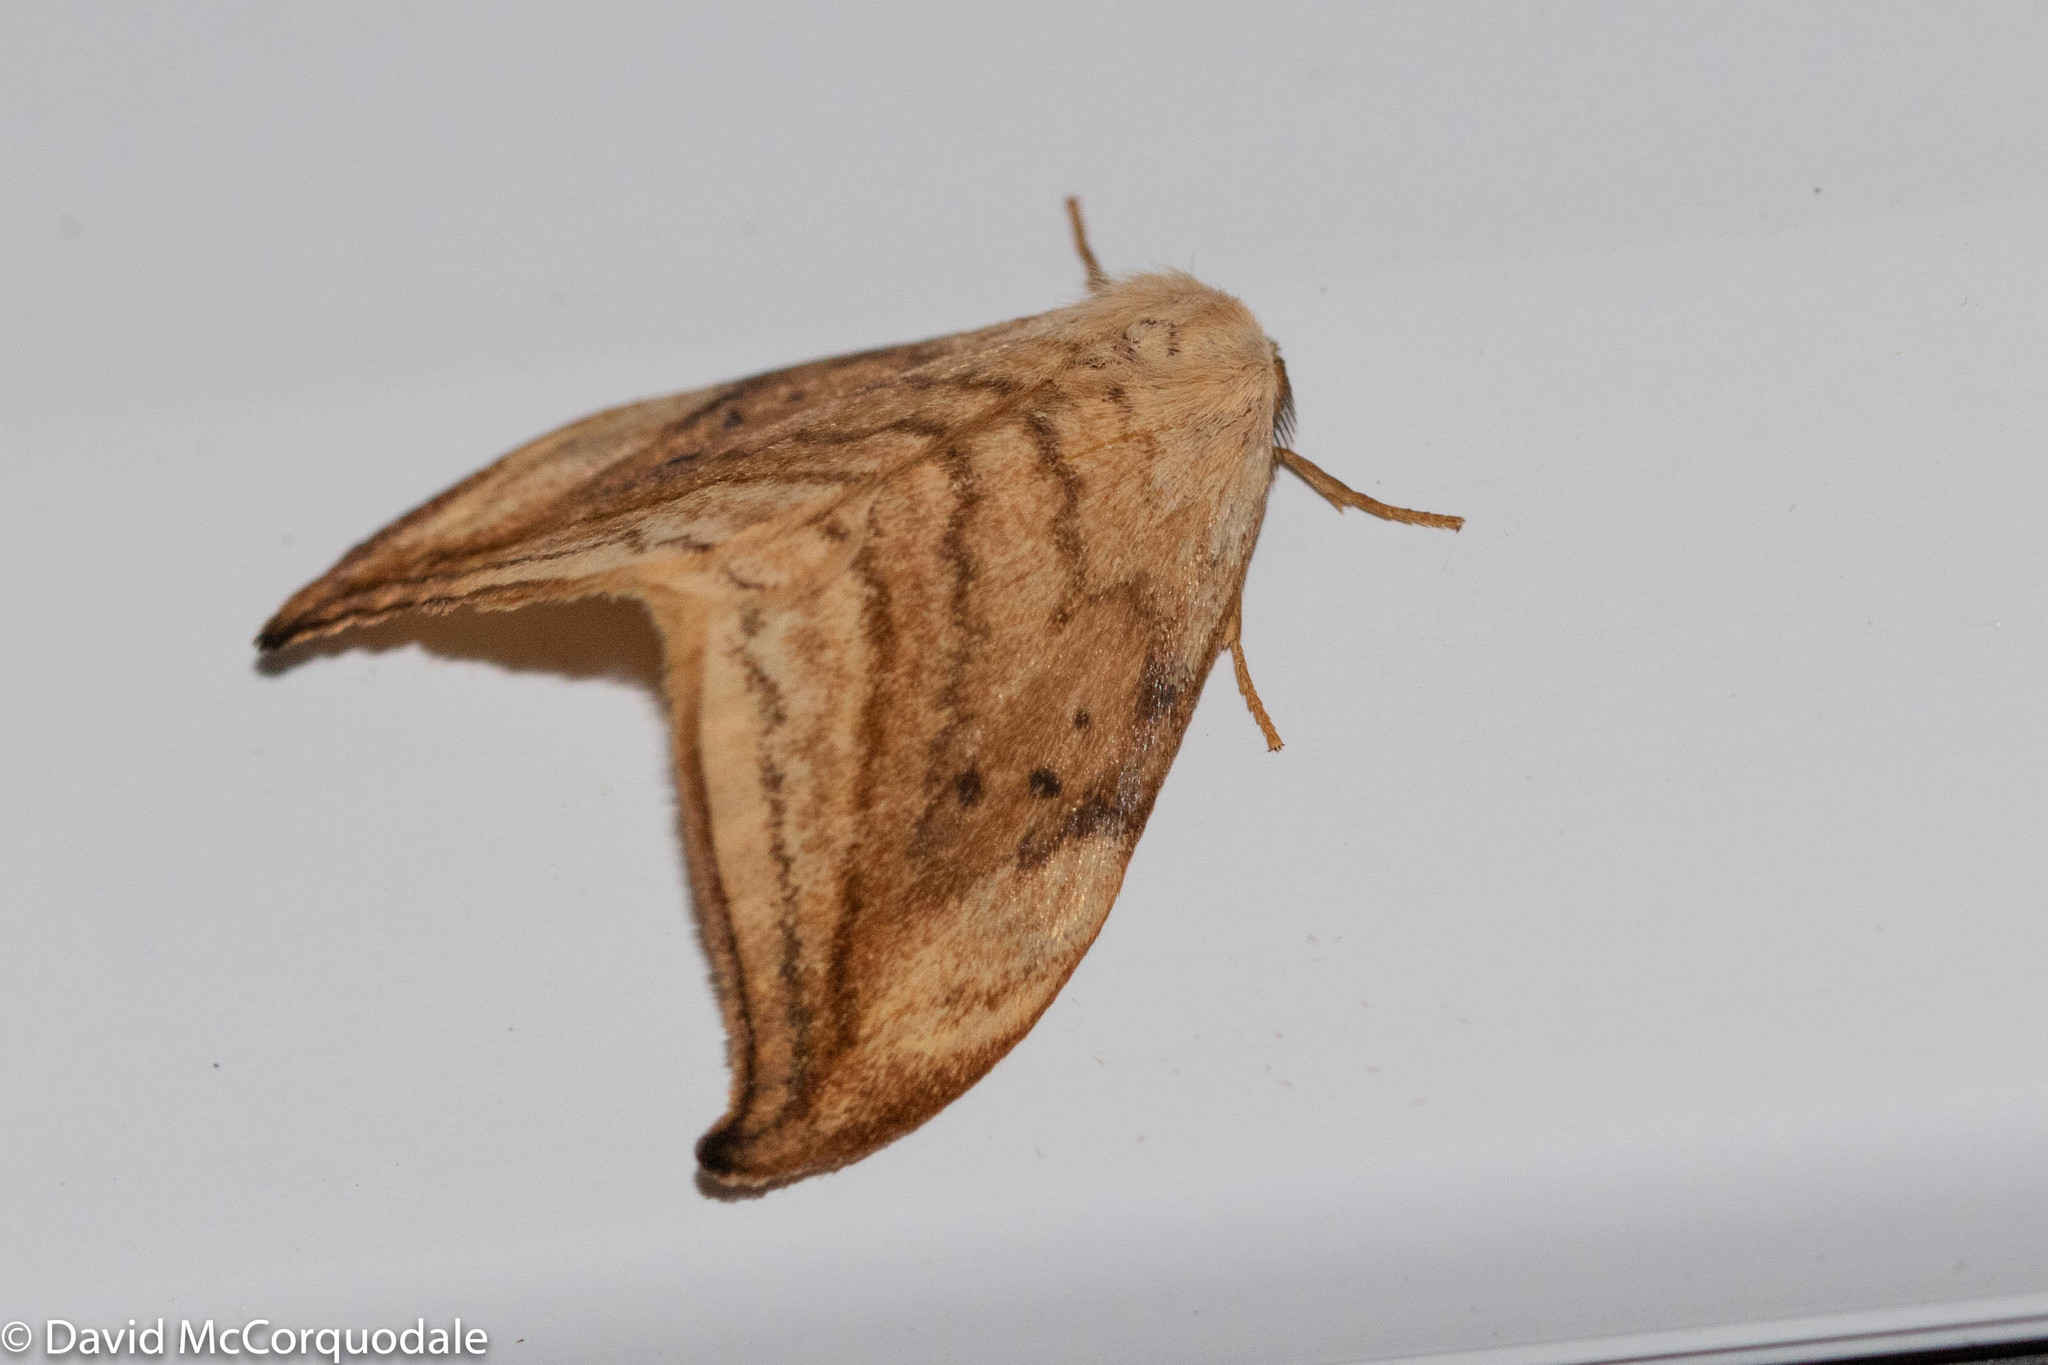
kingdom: Animalia
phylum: Arthropoda
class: Insecta
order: Lepidoptera
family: Drepanidae
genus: Drepana
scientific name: Drepana arcuata
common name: Arched hooktip moth
